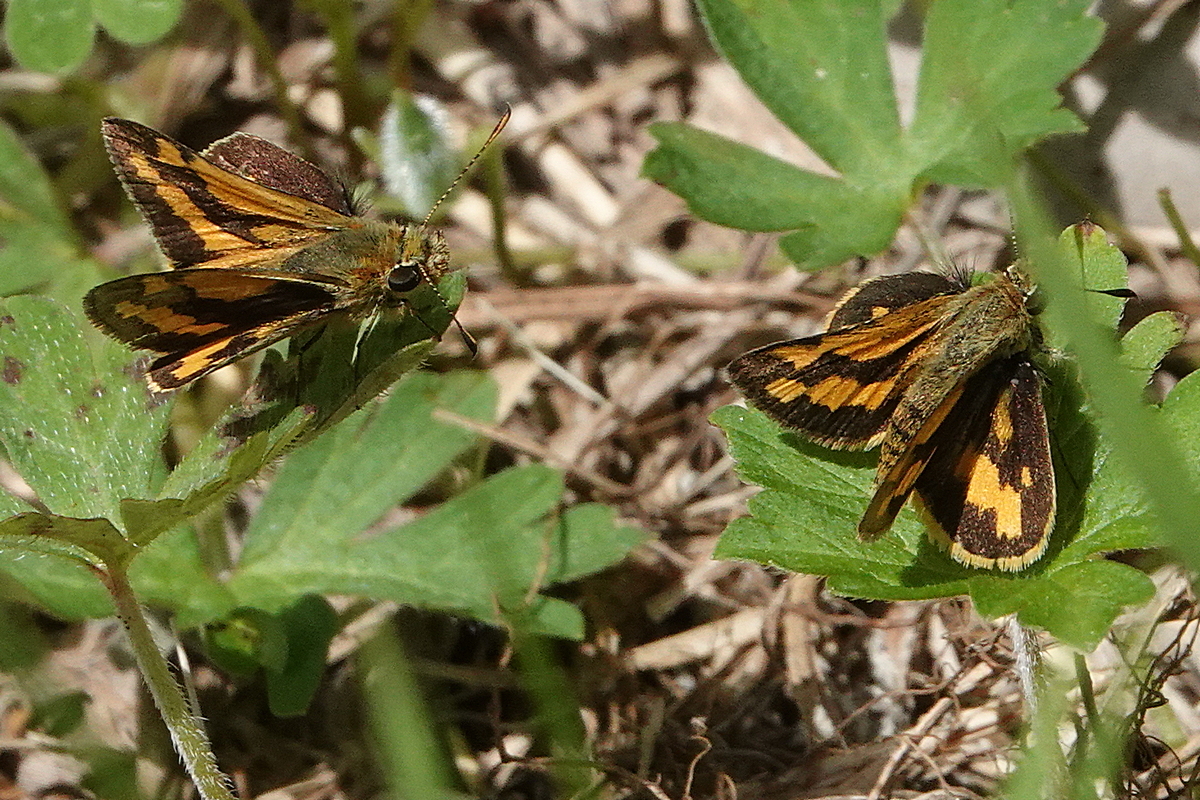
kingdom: Animalia
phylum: Arthropoda
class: Insecta
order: Lepidoptera
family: Hesperiidae
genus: Ocybadistes
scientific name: Ocybadistes walkeri
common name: Yellow-banded dart
